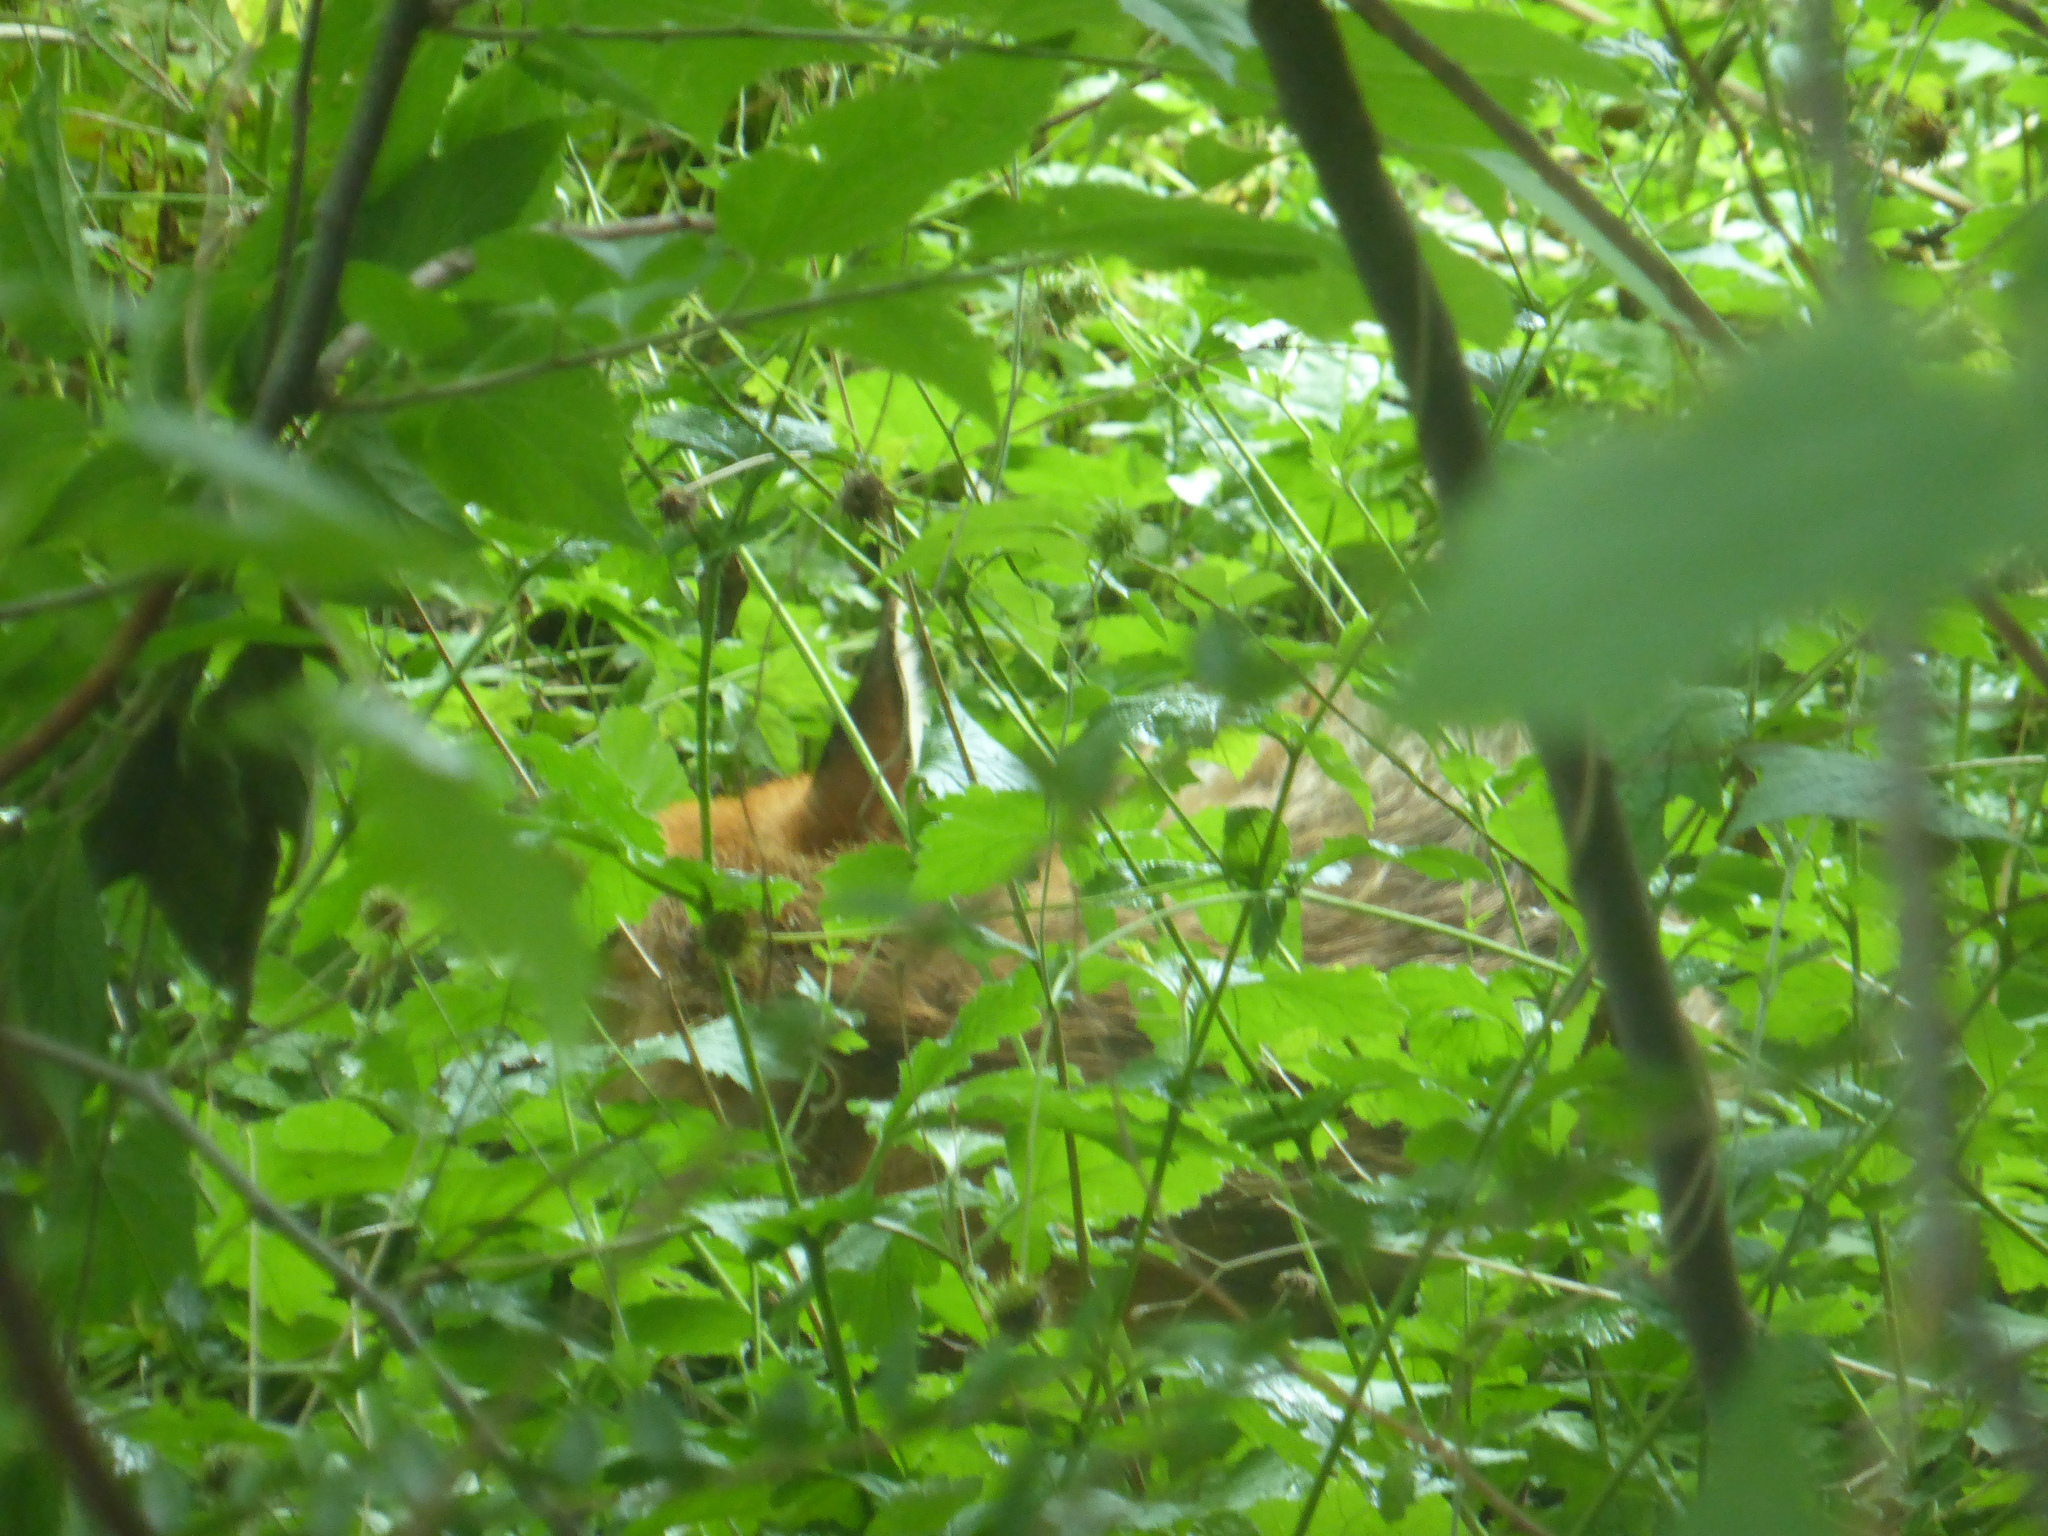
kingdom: Animalia
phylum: Chordata
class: Mammalia
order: Carnivora
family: Canidae
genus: Vulpes
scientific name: Vulpes vulpes
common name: Red fox
